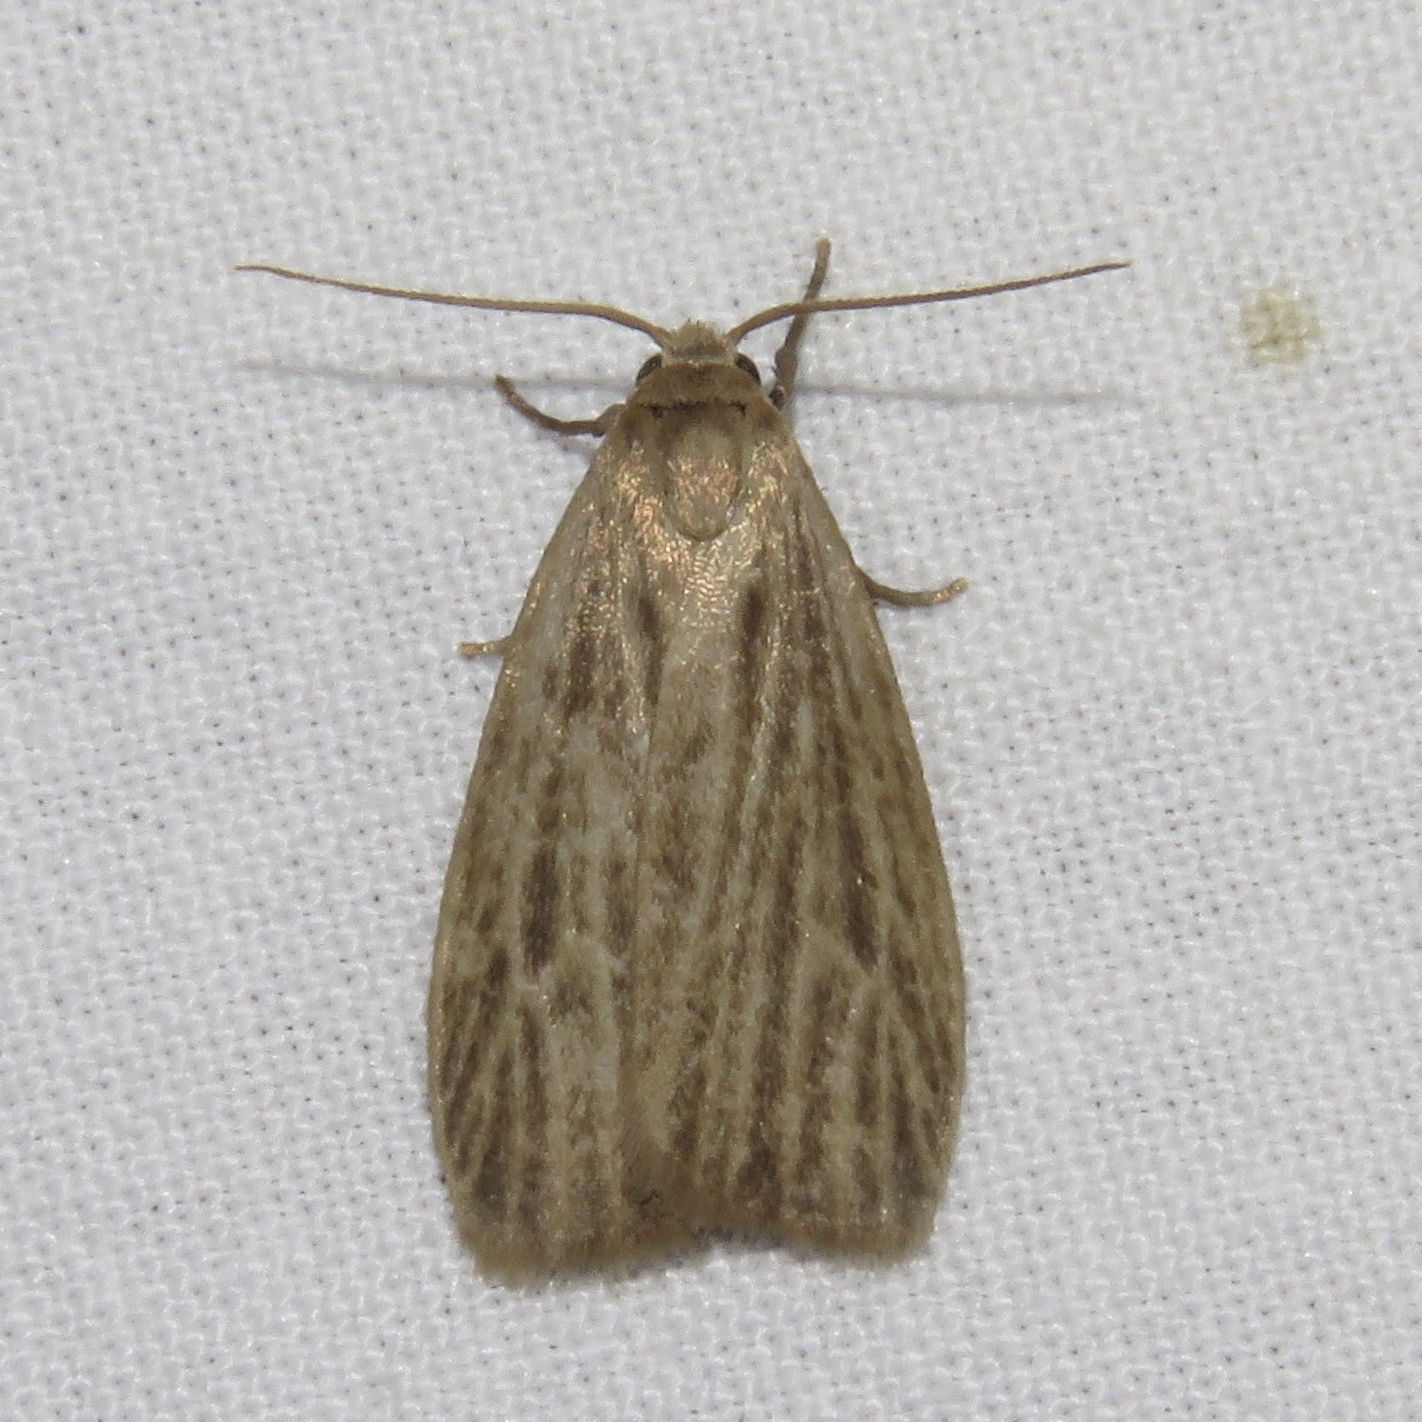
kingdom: Animalia
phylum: Arthropoda
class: Insecta
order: Lepidoptera
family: Erebidae
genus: Crambidia
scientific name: Crambidia pallida
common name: Pale lichen moth
